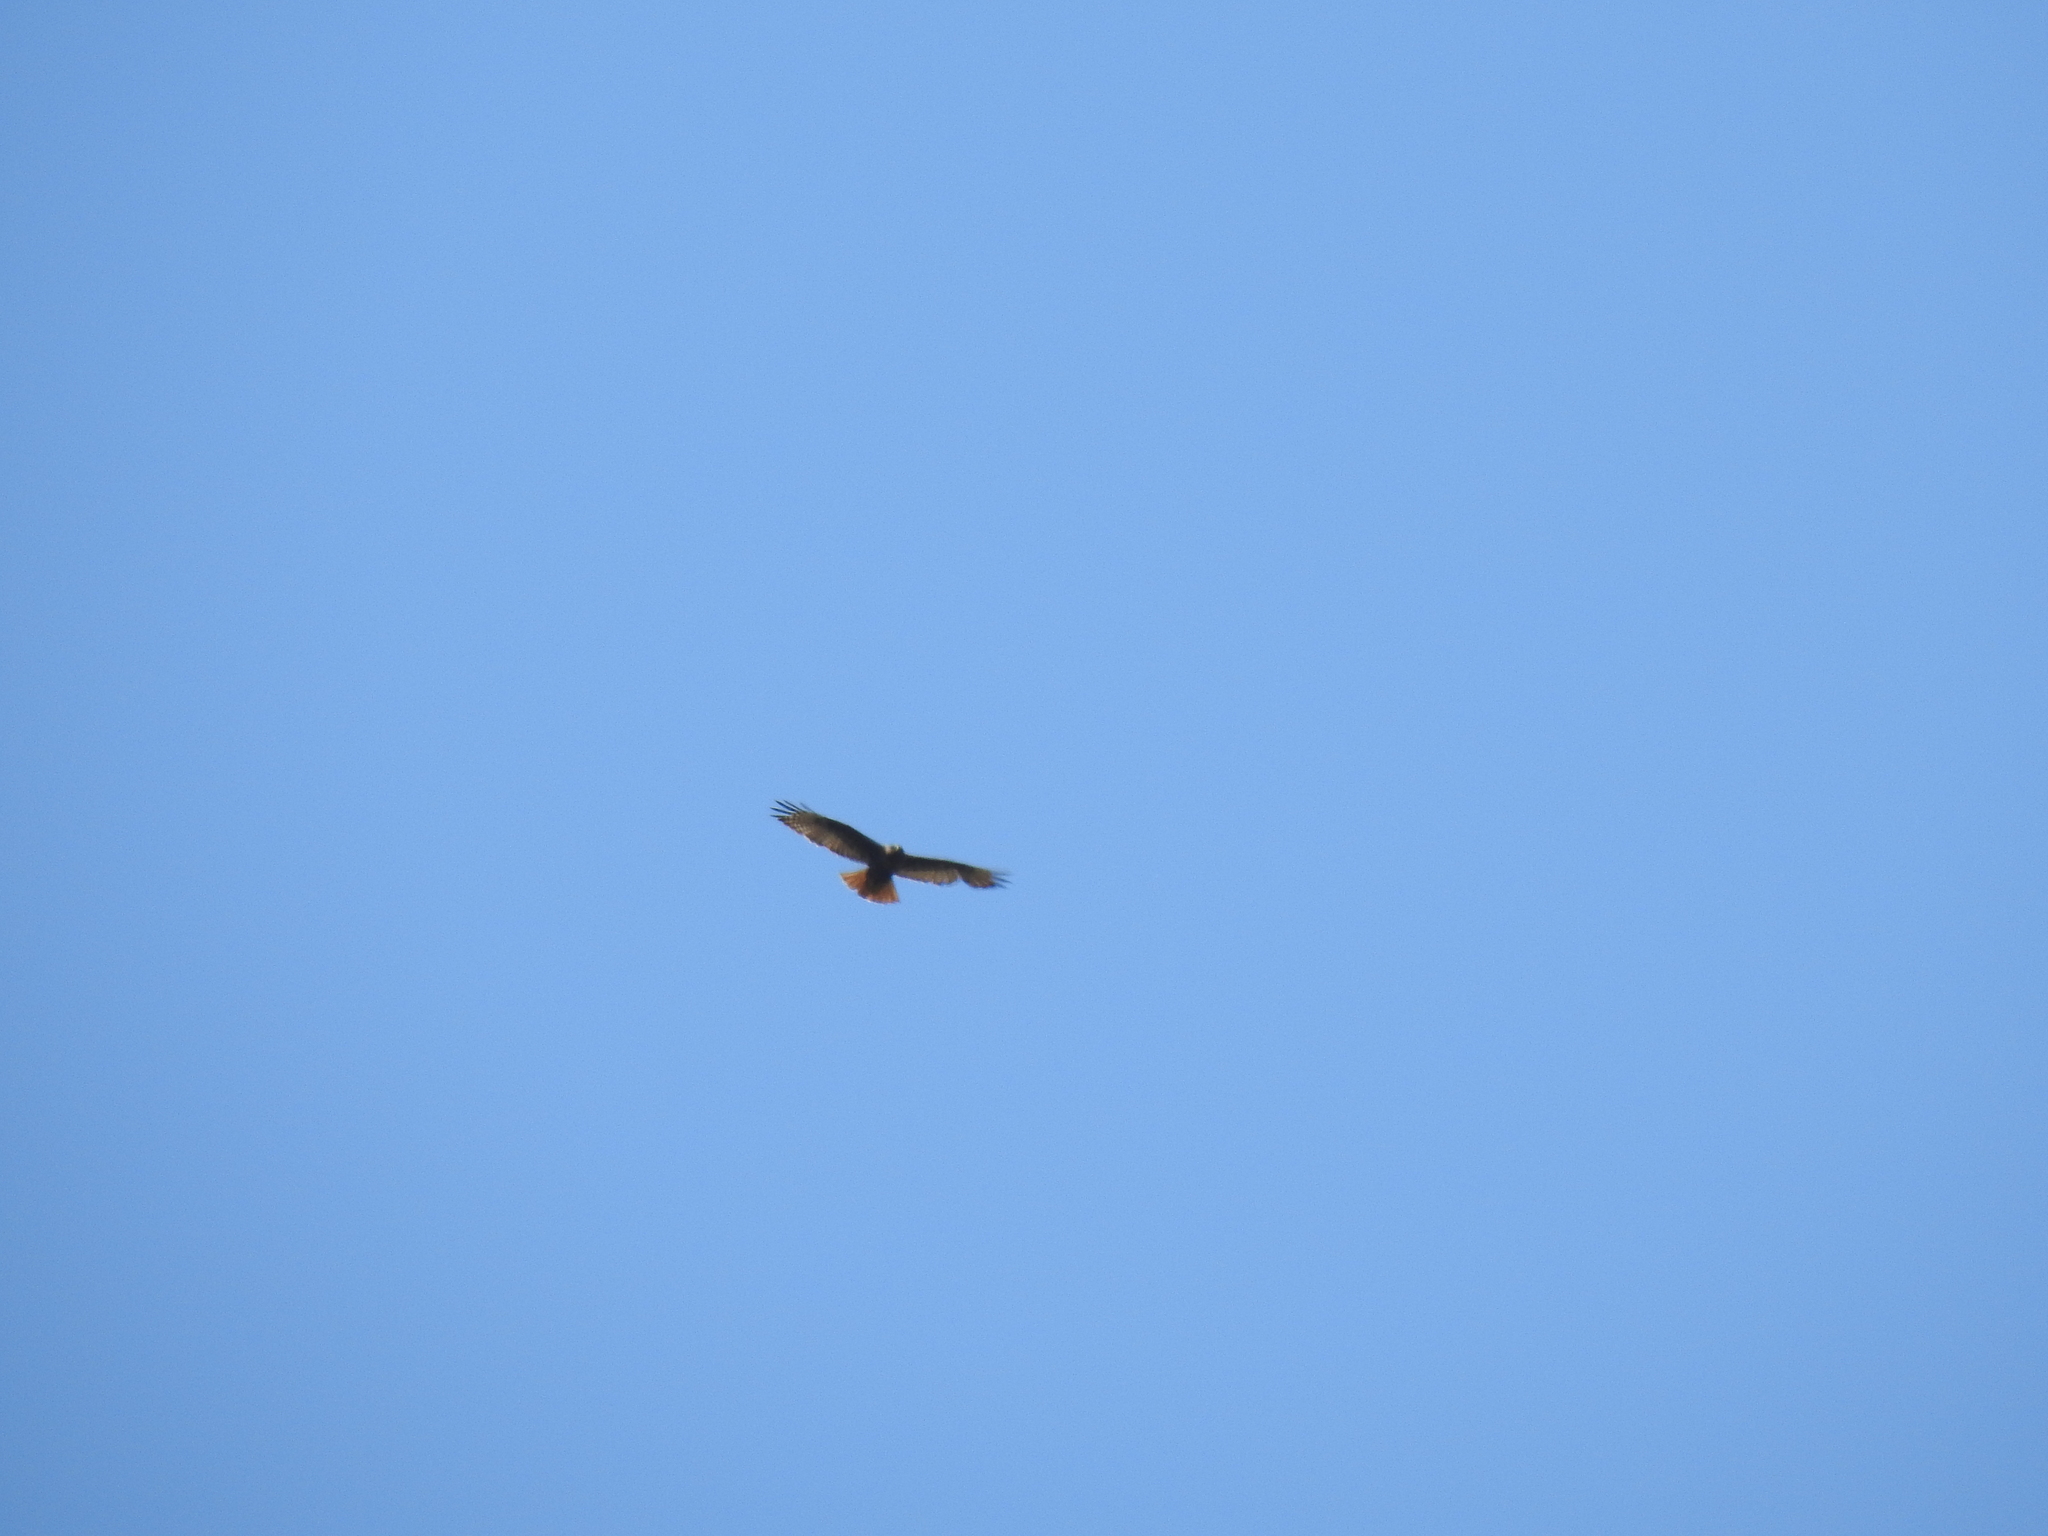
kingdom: Animalia
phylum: Chordata
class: Aves
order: Accipitriformes
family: Accipitridae
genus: Buteo
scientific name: Buteo jamaicensis
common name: Red-tailed hawk
